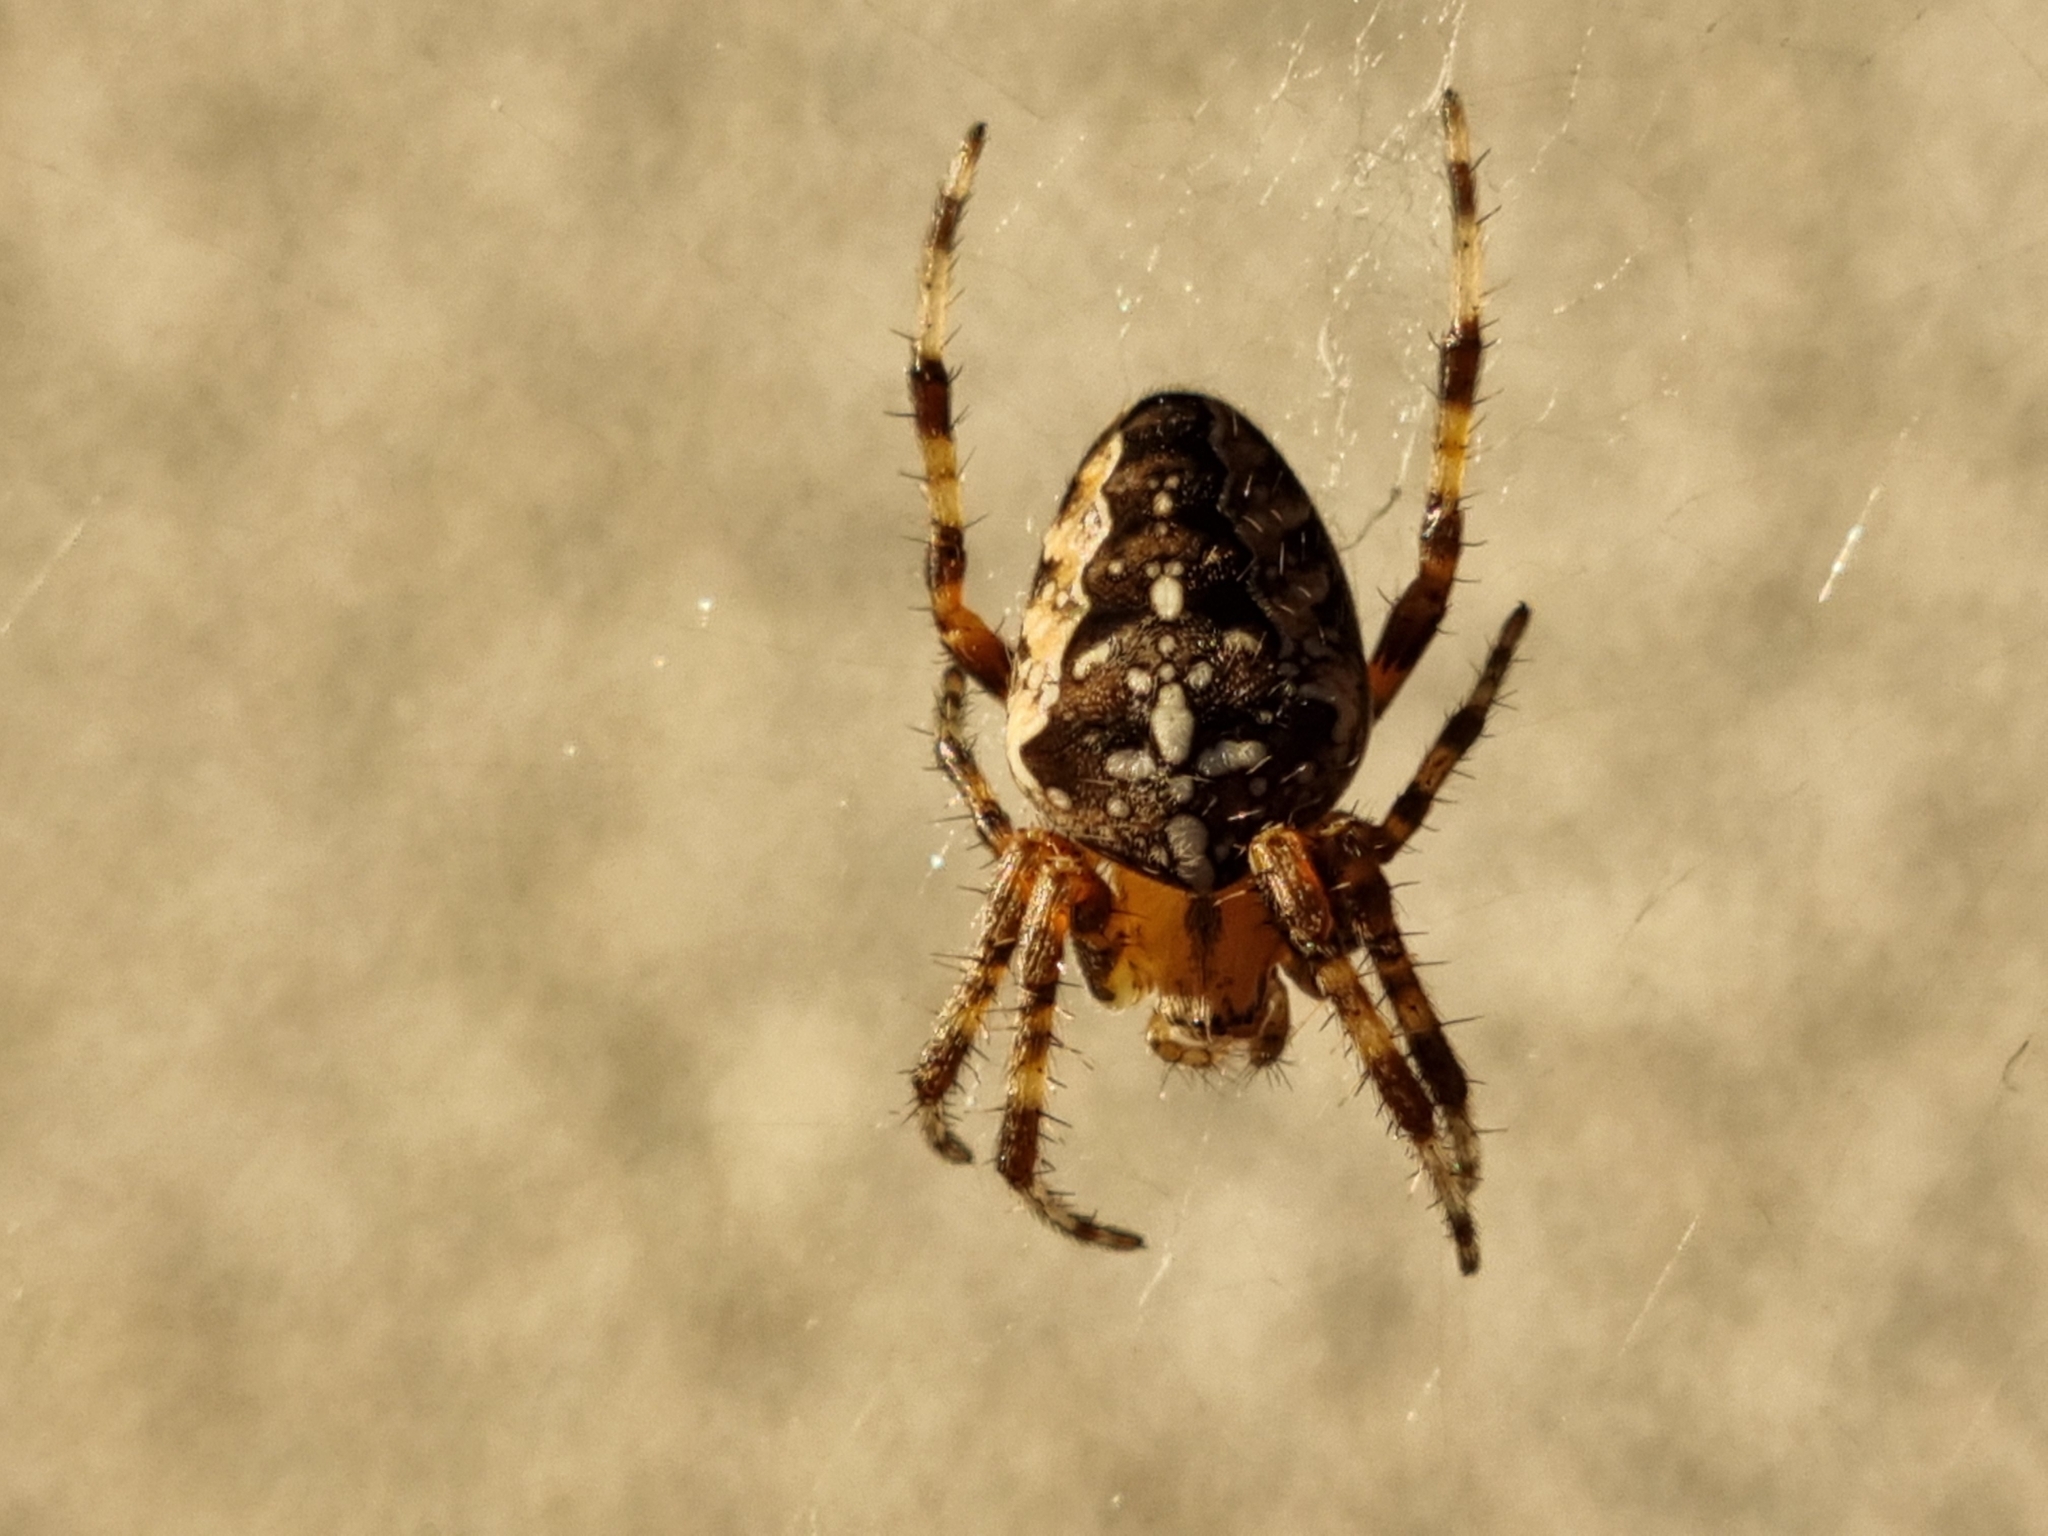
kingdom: Animalia
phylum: Arthropoda
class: Arachnida
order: Araneae
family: Araneidae
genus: Araneus
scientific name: Araneus diadematus
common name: Cross orbweaver
